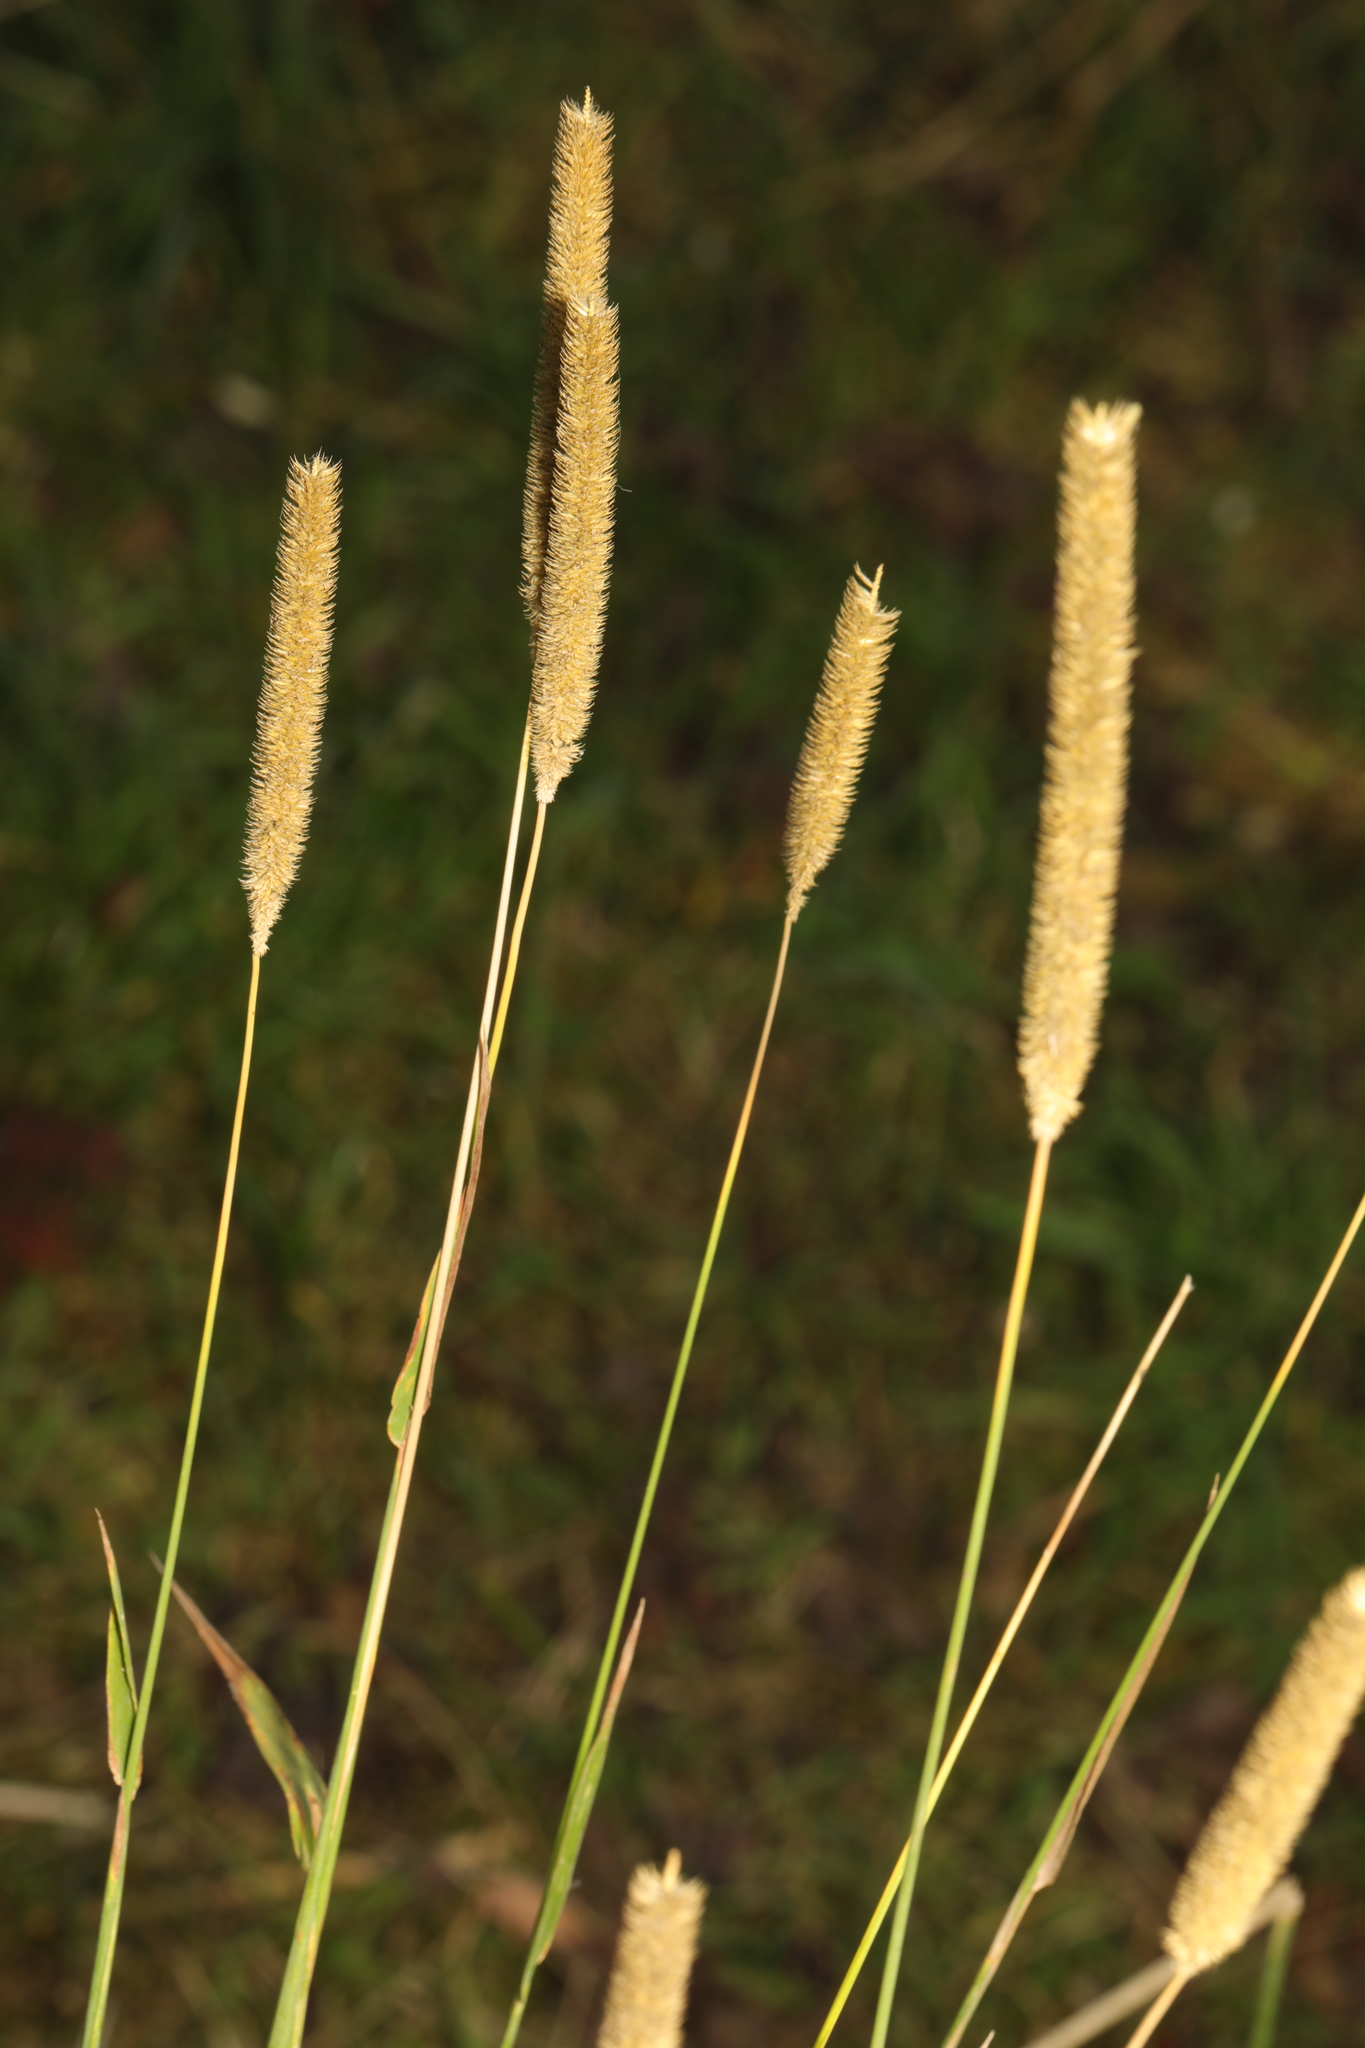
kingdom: Plantae
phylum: Tracheophyta
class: Liliopsida
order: Poales
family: Poaceae
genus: Phleum
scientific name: Phleum pratense
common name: Timothy grass
